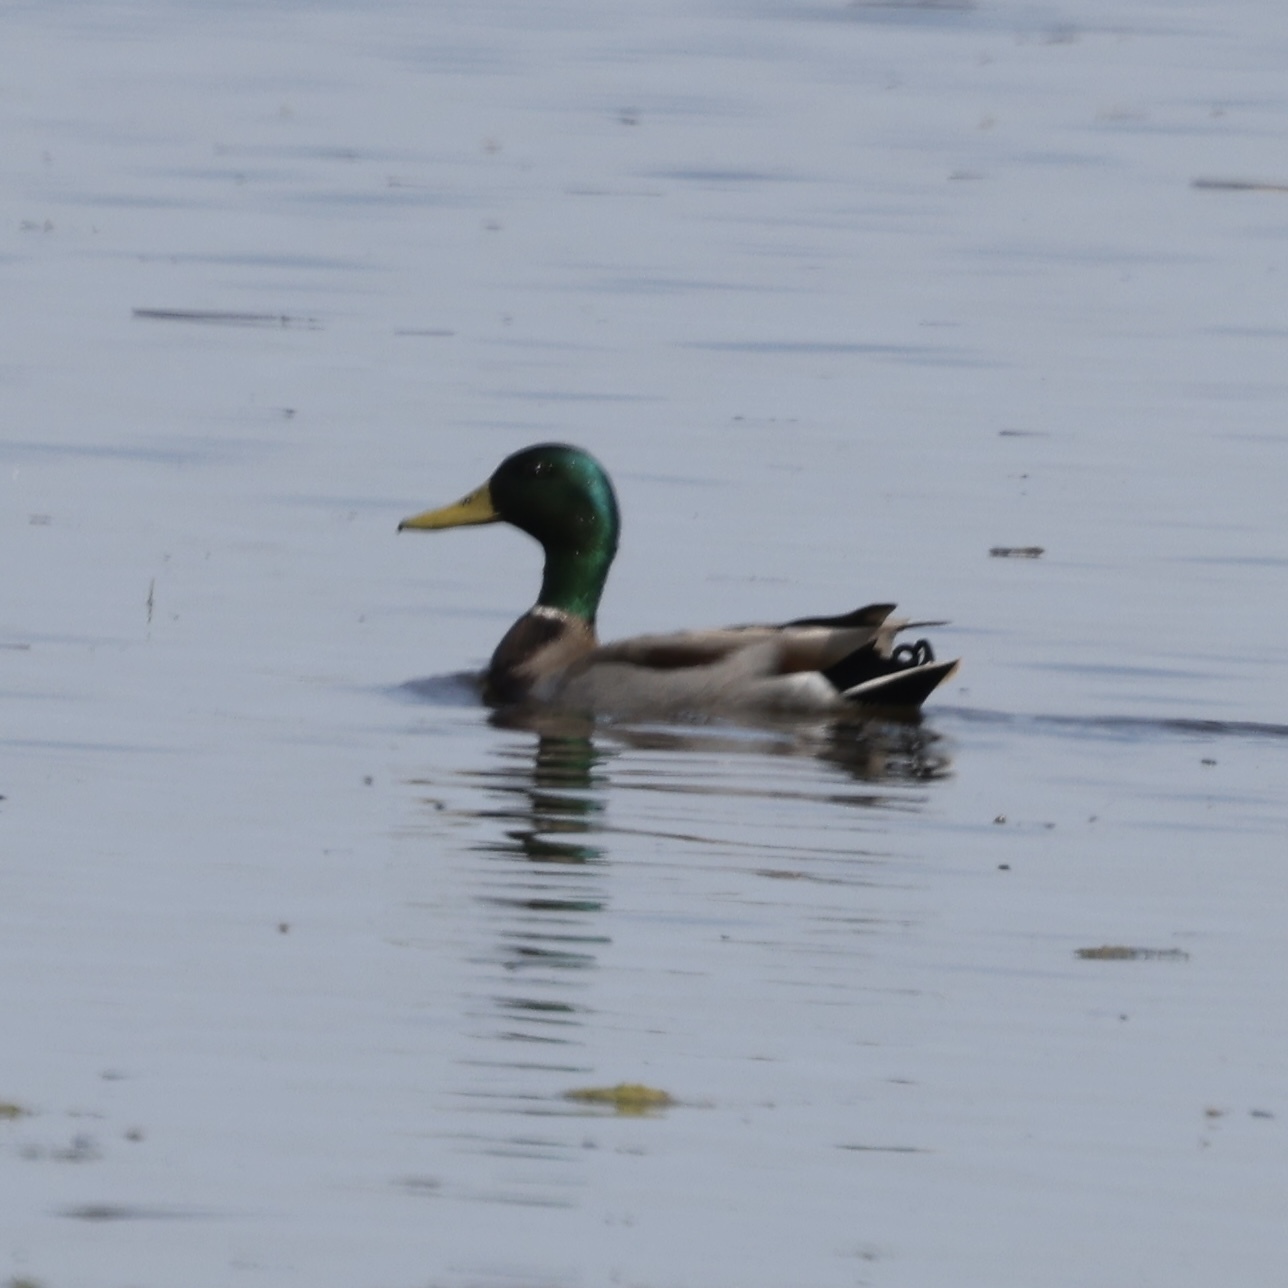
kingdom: Animalia
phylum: Chordata
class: Aves
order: Anseriformes
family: Anatidae
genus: Anas
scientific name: Anas platyrhynchos
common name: Mallard
